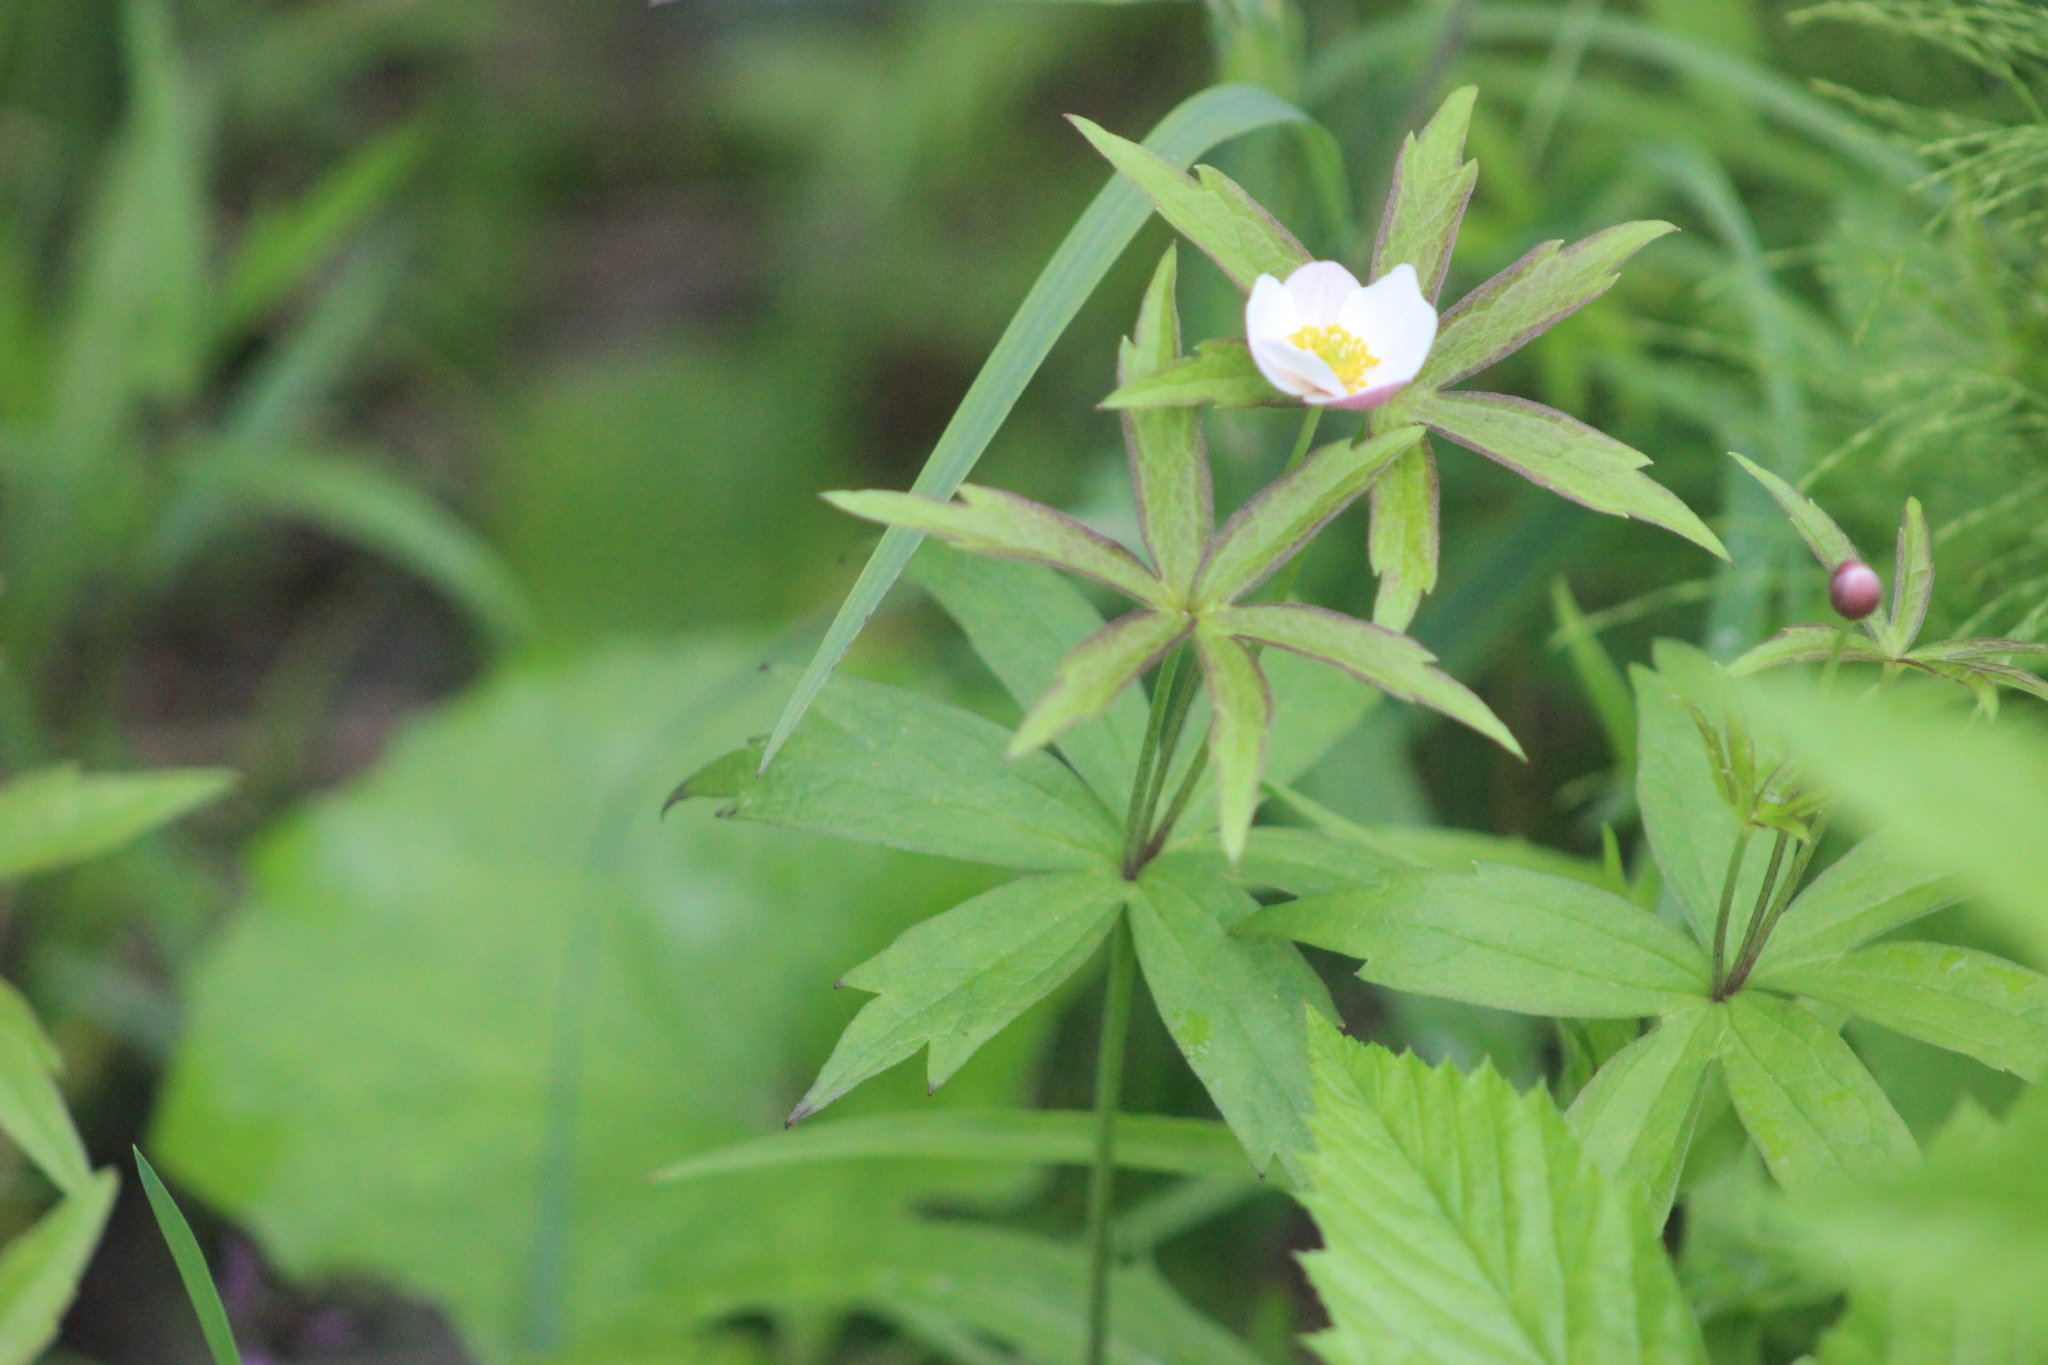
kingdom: Plantae
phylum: Tracheophyta
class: Magnoliopsida
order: Ranunculales
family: Ranunculaceae
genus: Anemonastrum
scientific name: Anemonastrum dichotomum
